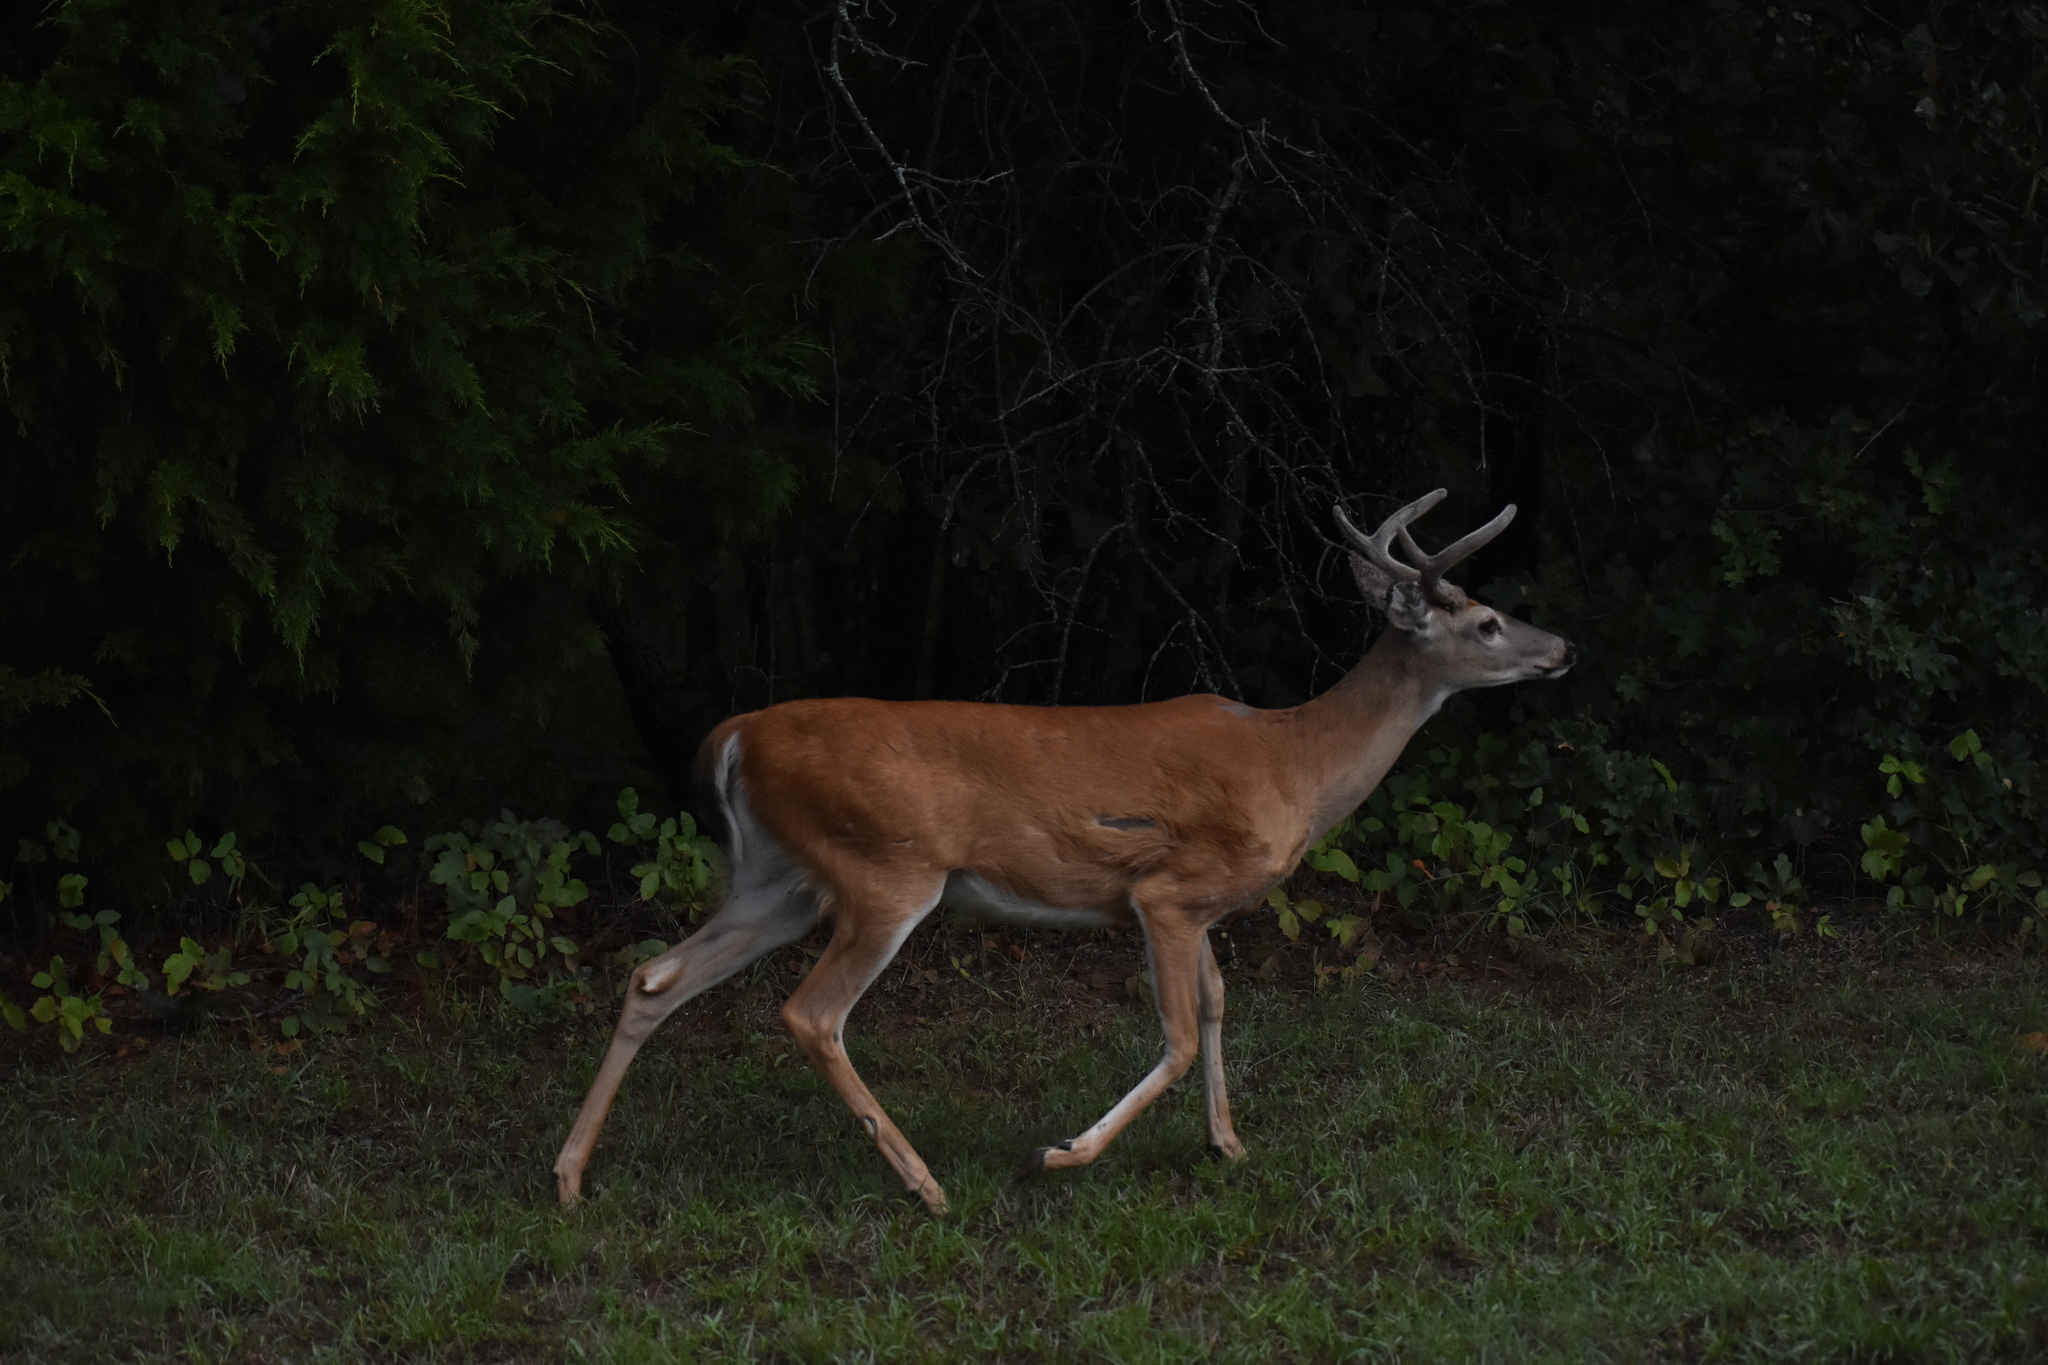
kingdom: Animalia
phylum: Chordata
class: Mammalia
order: Artiodactyla
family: Cervidae
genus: Odocoileus
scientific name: Odocoileus virginianus
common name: White-tailed deer
